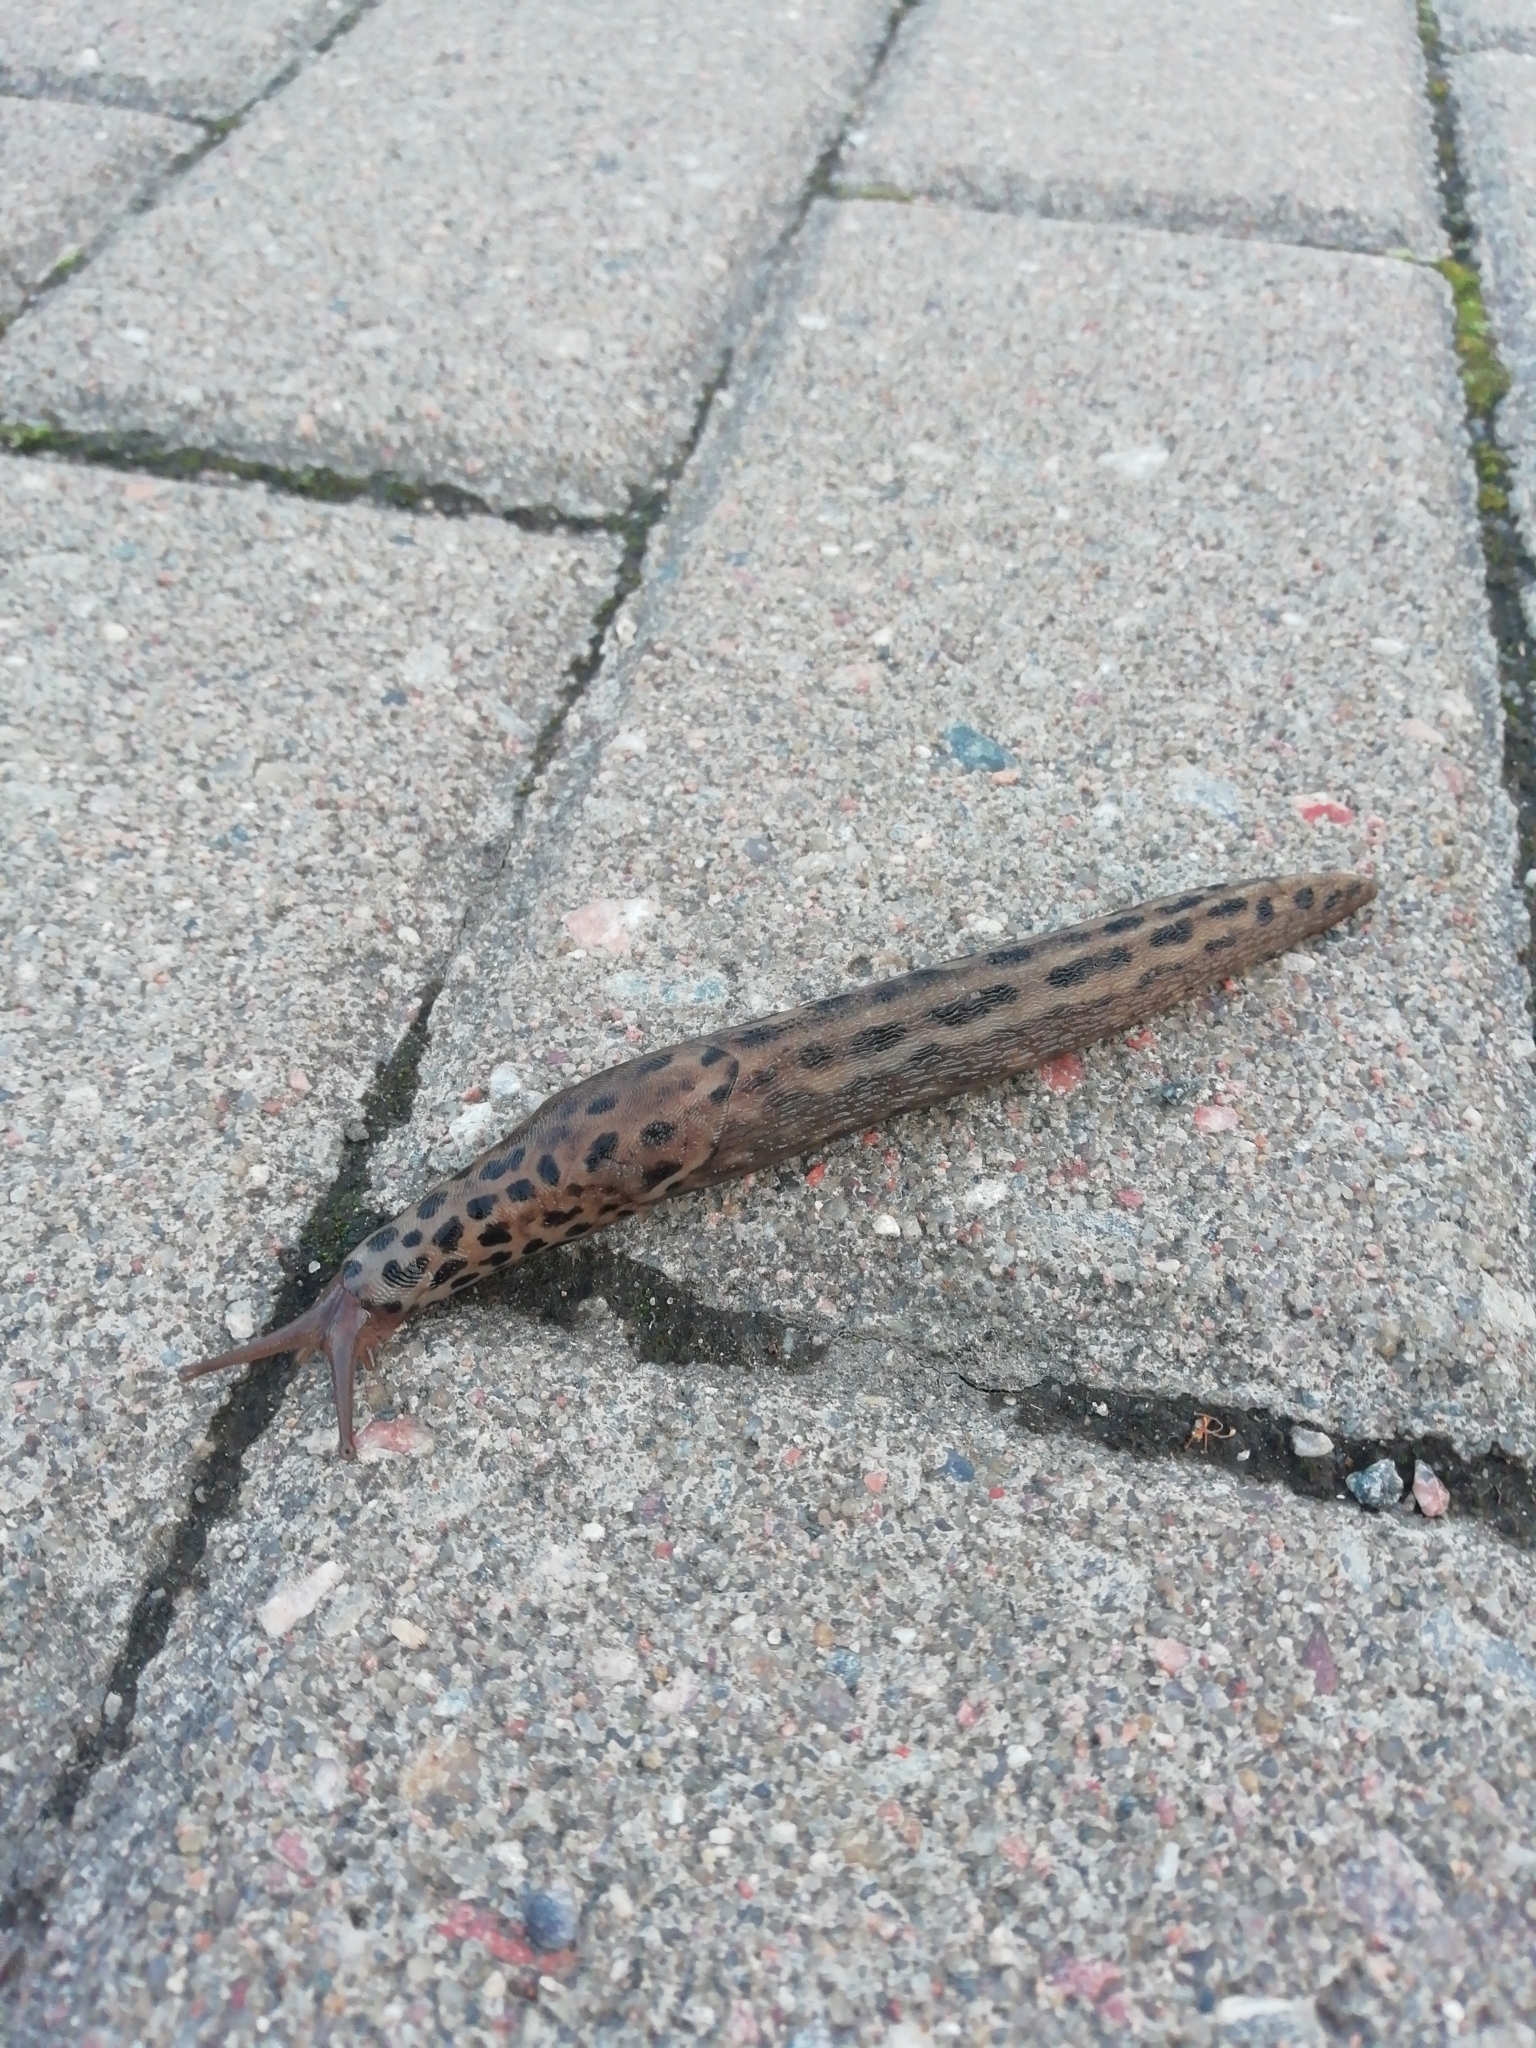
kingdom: Animalia
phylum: Mollusca
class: Gastropoda
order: Stylommatophora
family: Limacidae
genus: Limax
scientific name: Limax maximus
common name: Great grey slug
